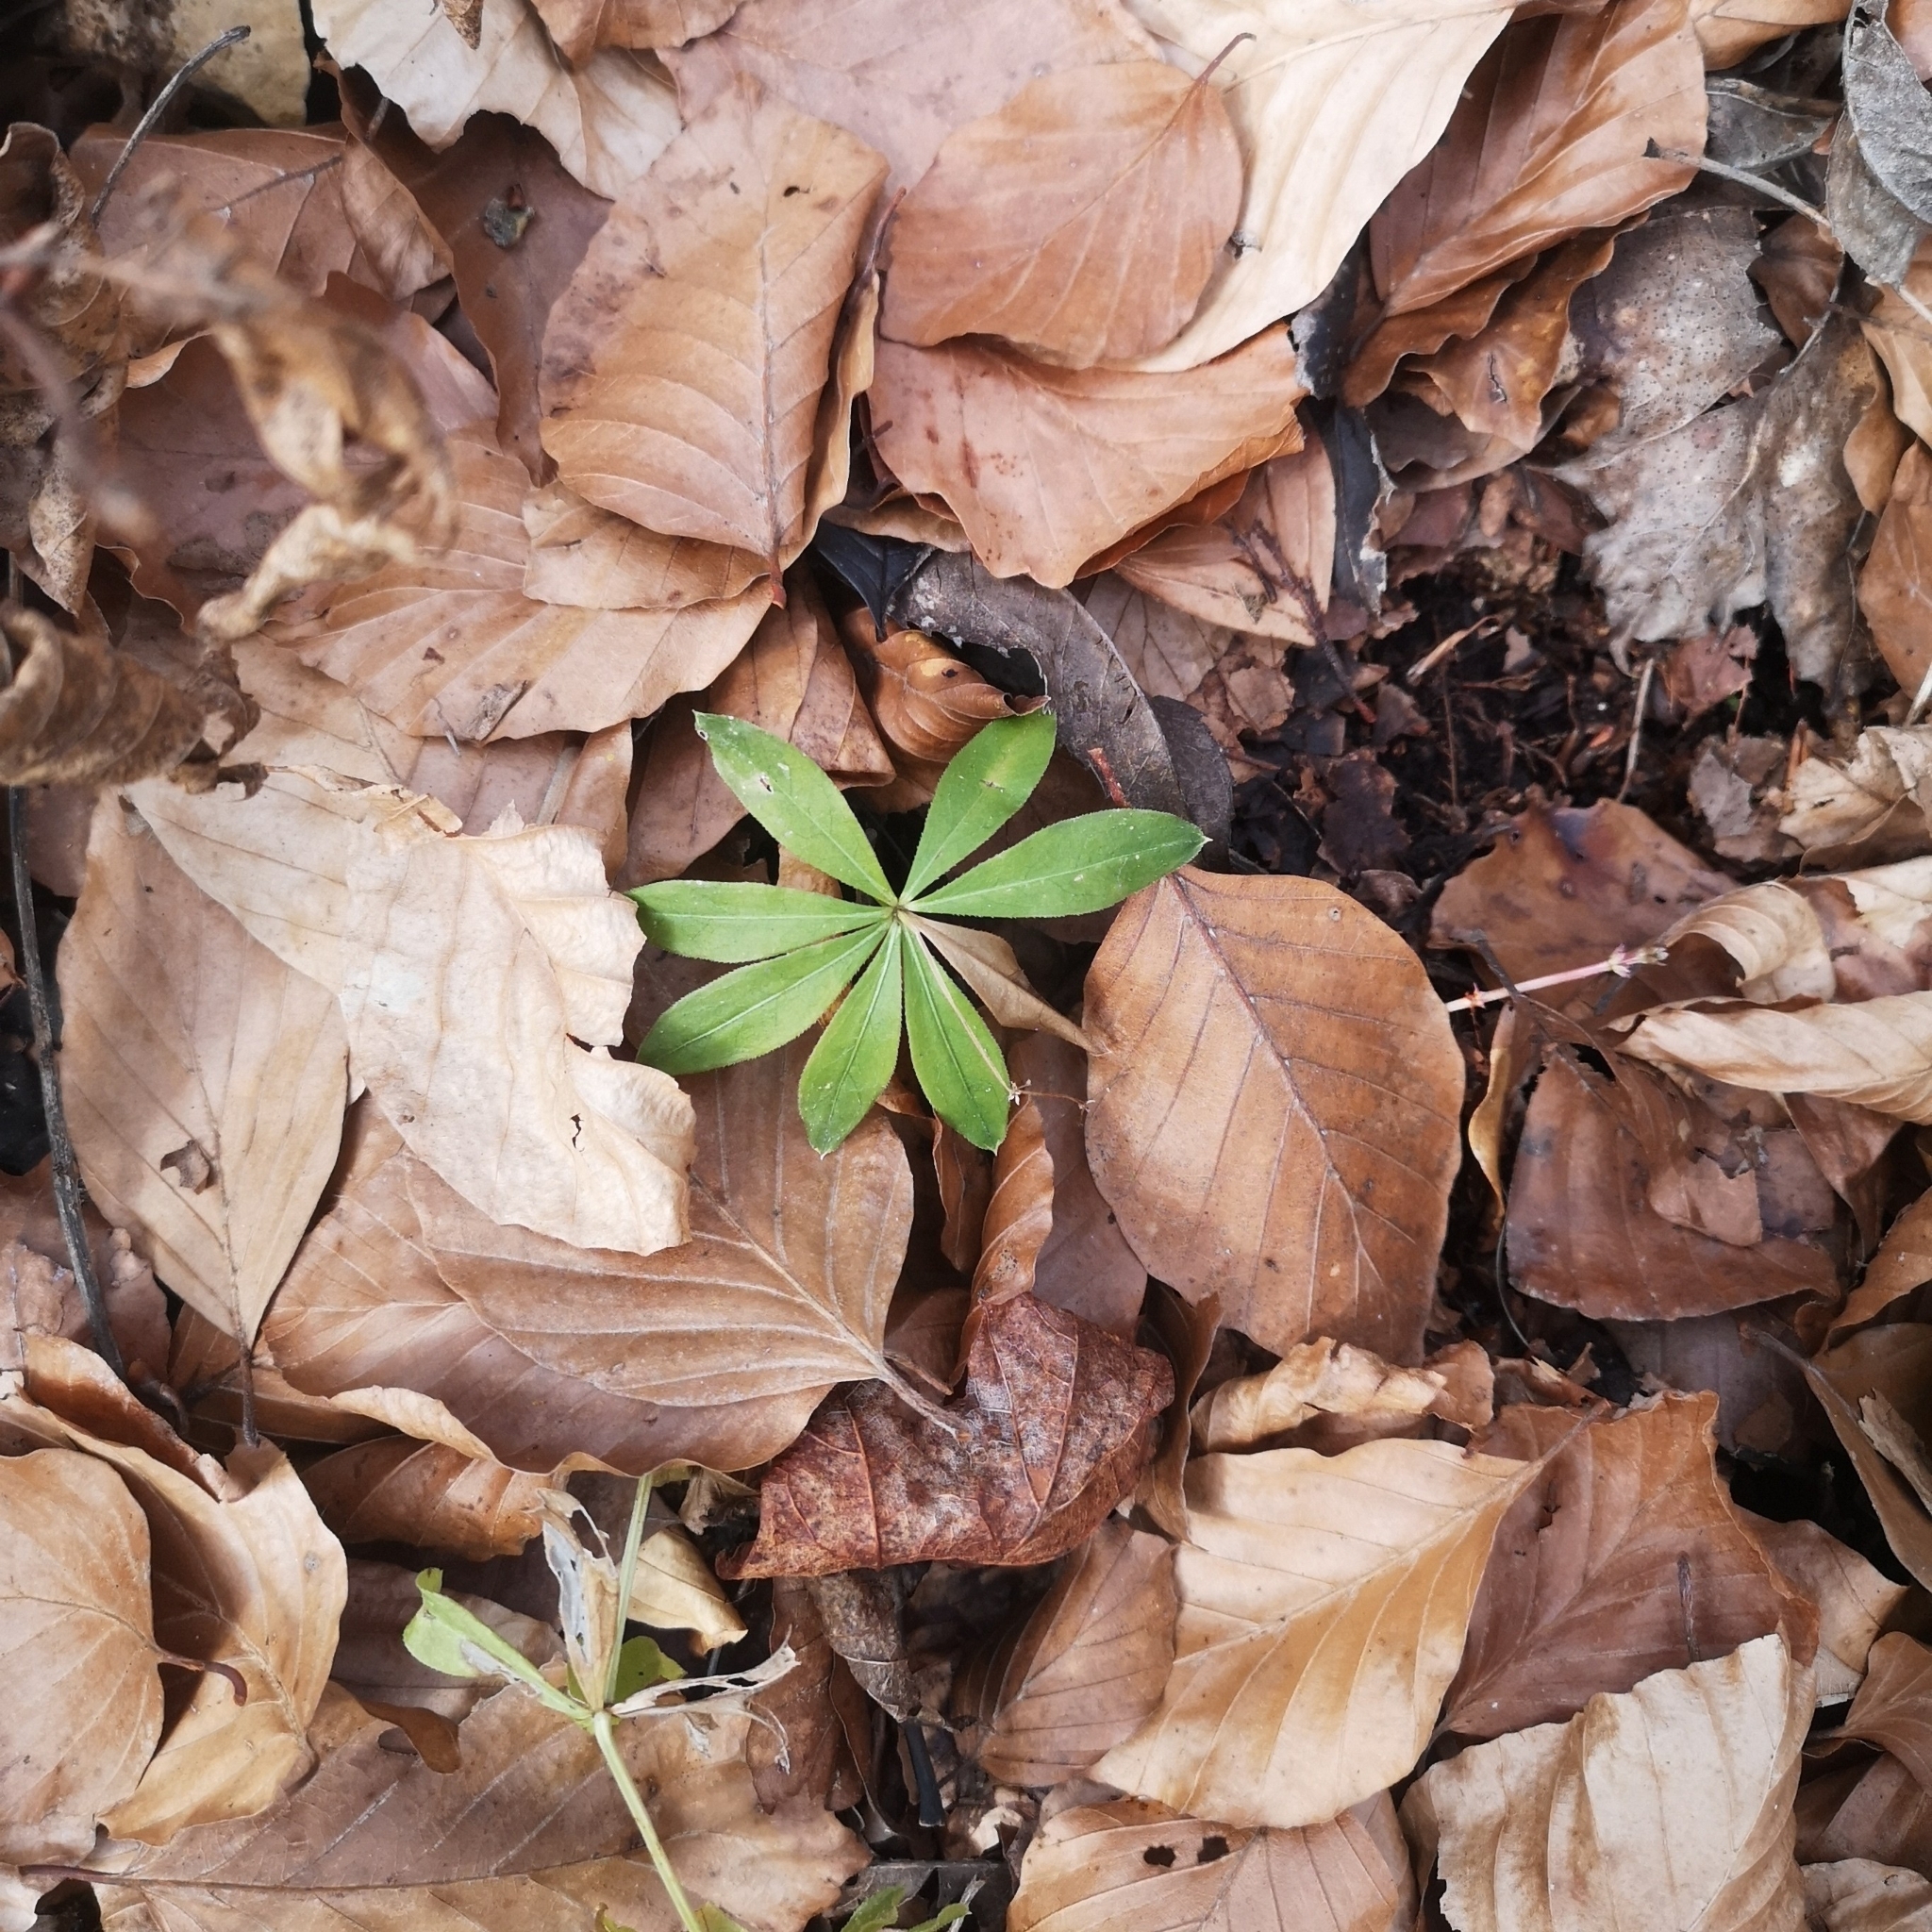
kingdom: Plantae
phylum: Tracheophyta
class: Magnoliopsida
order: Gentianales
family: Rubiaceae
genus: Galium
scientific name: Galium odoratum
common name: Sweet woodruff
